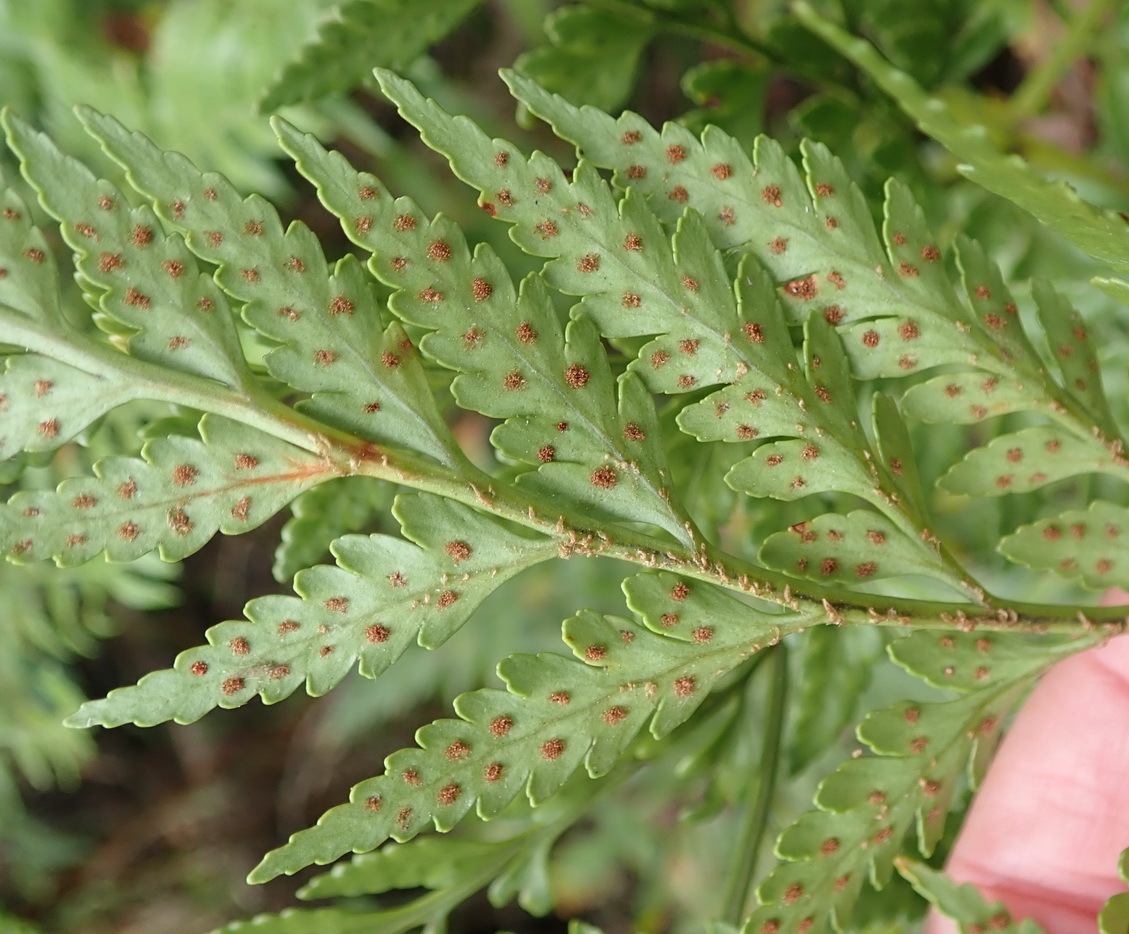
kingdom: Plantae
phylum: Tracheophyta
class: Polypodiopsida
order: Polypodiales
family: Dryopteridaceae
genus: Rumohra
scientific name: Rumohra adiantiformis
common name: Leather fern
